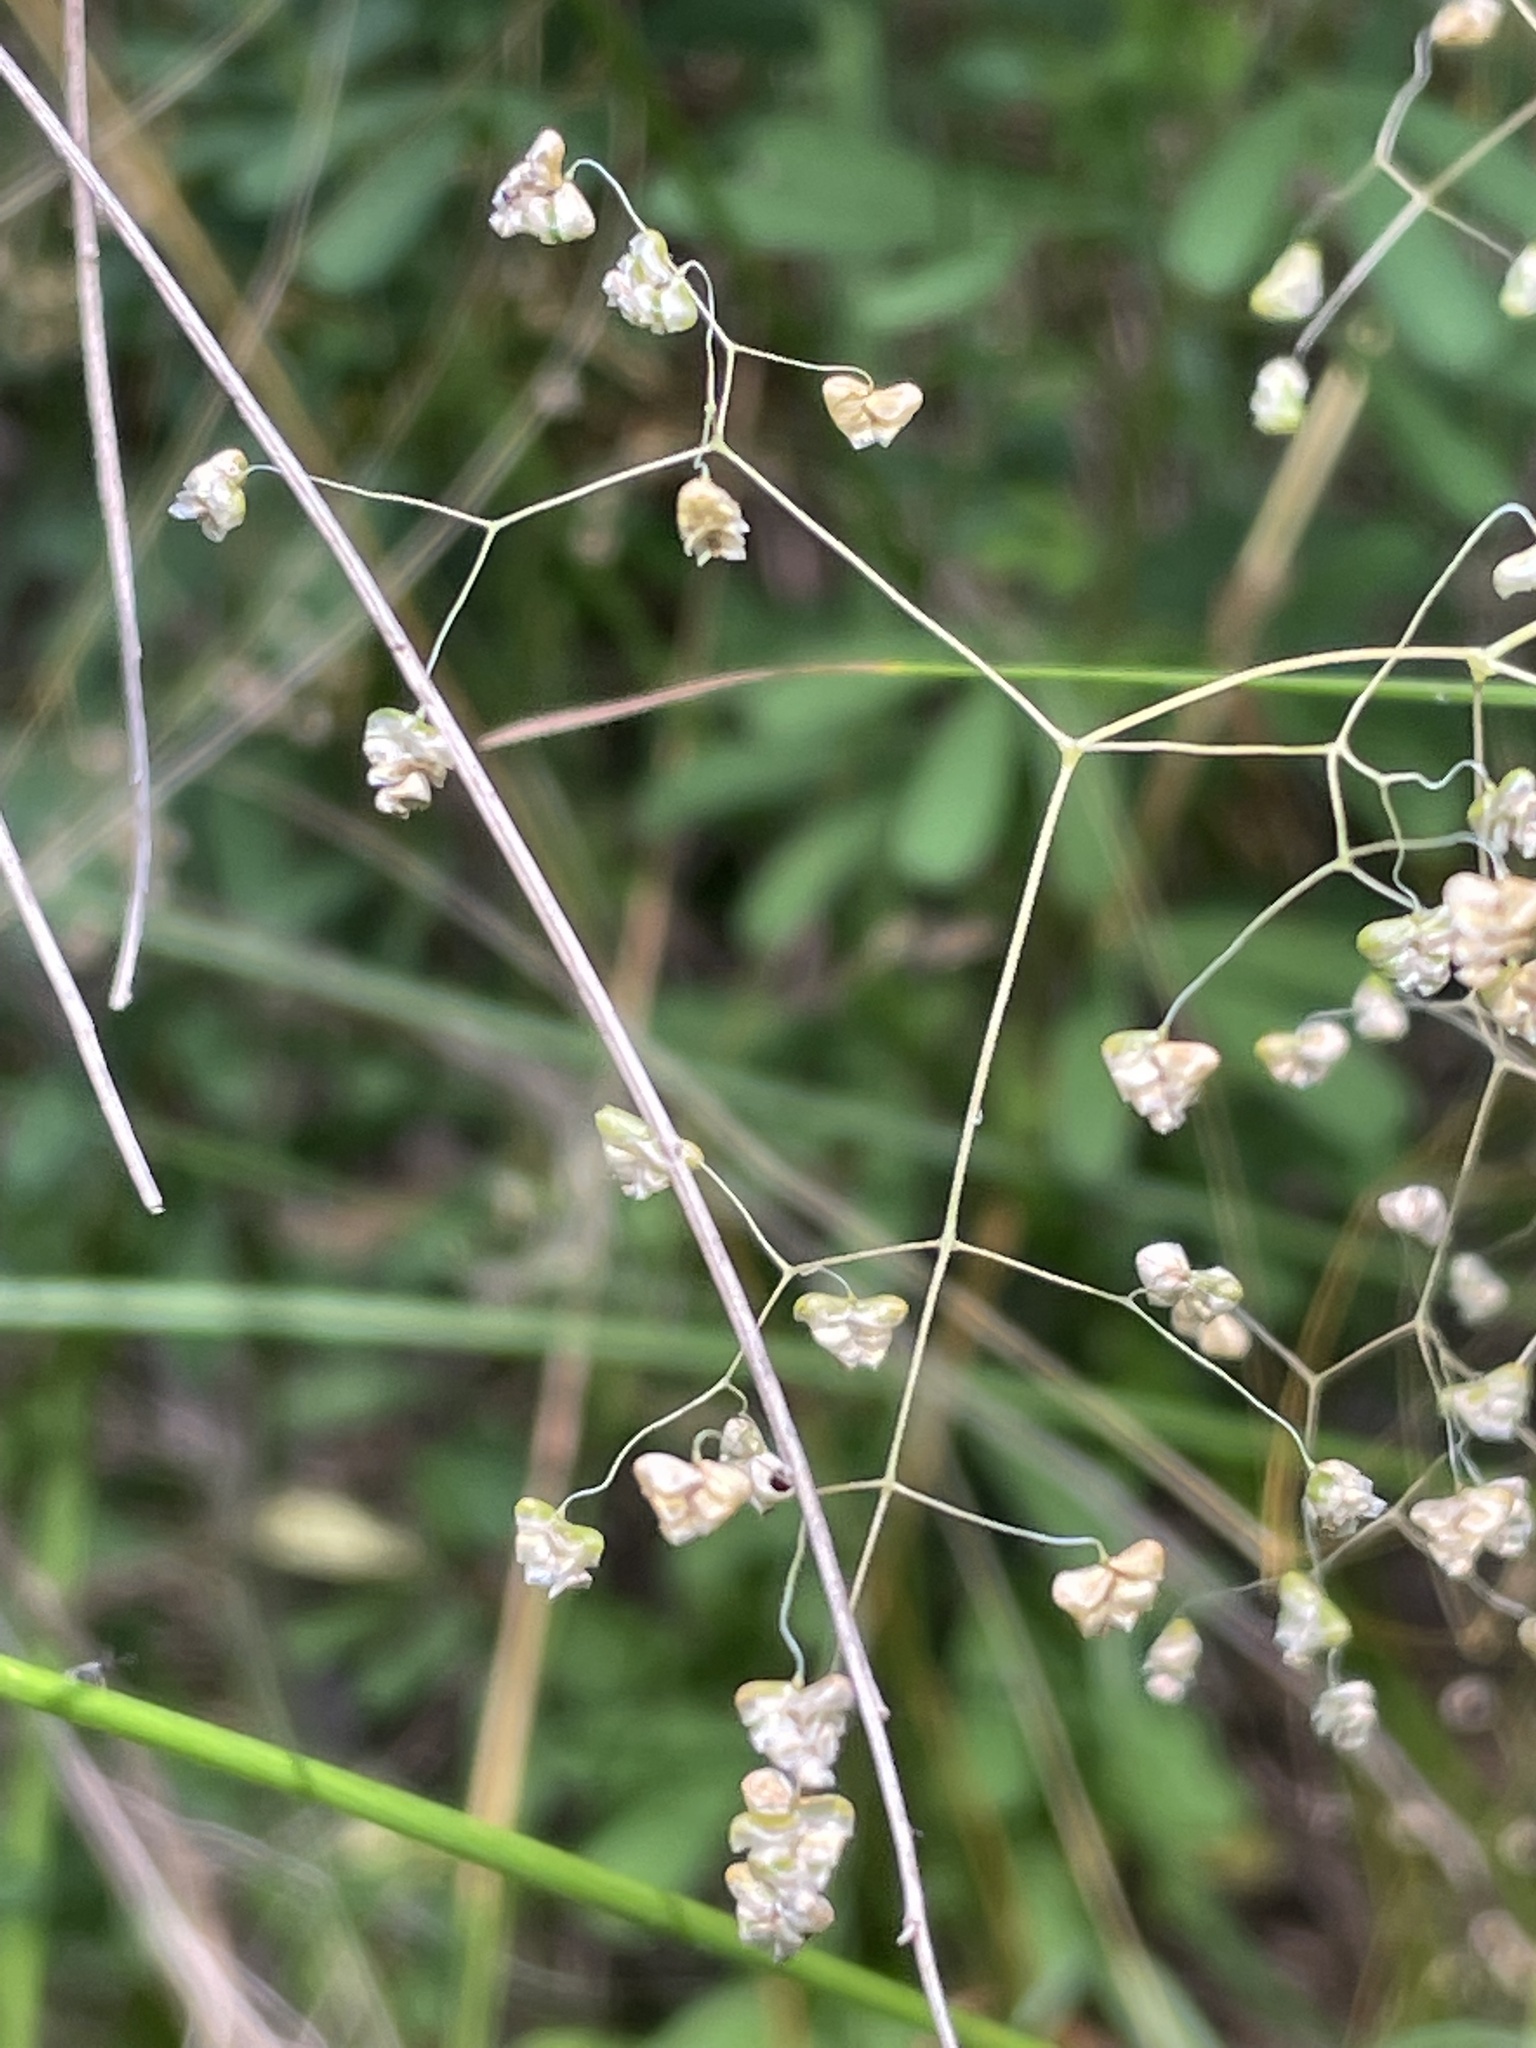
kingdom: Plantae
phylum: Tracheophyta
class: Liliopsida
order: Poales
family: Poaceae
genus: Briza
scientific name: Briza minor
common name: Lesser quaking-grass
